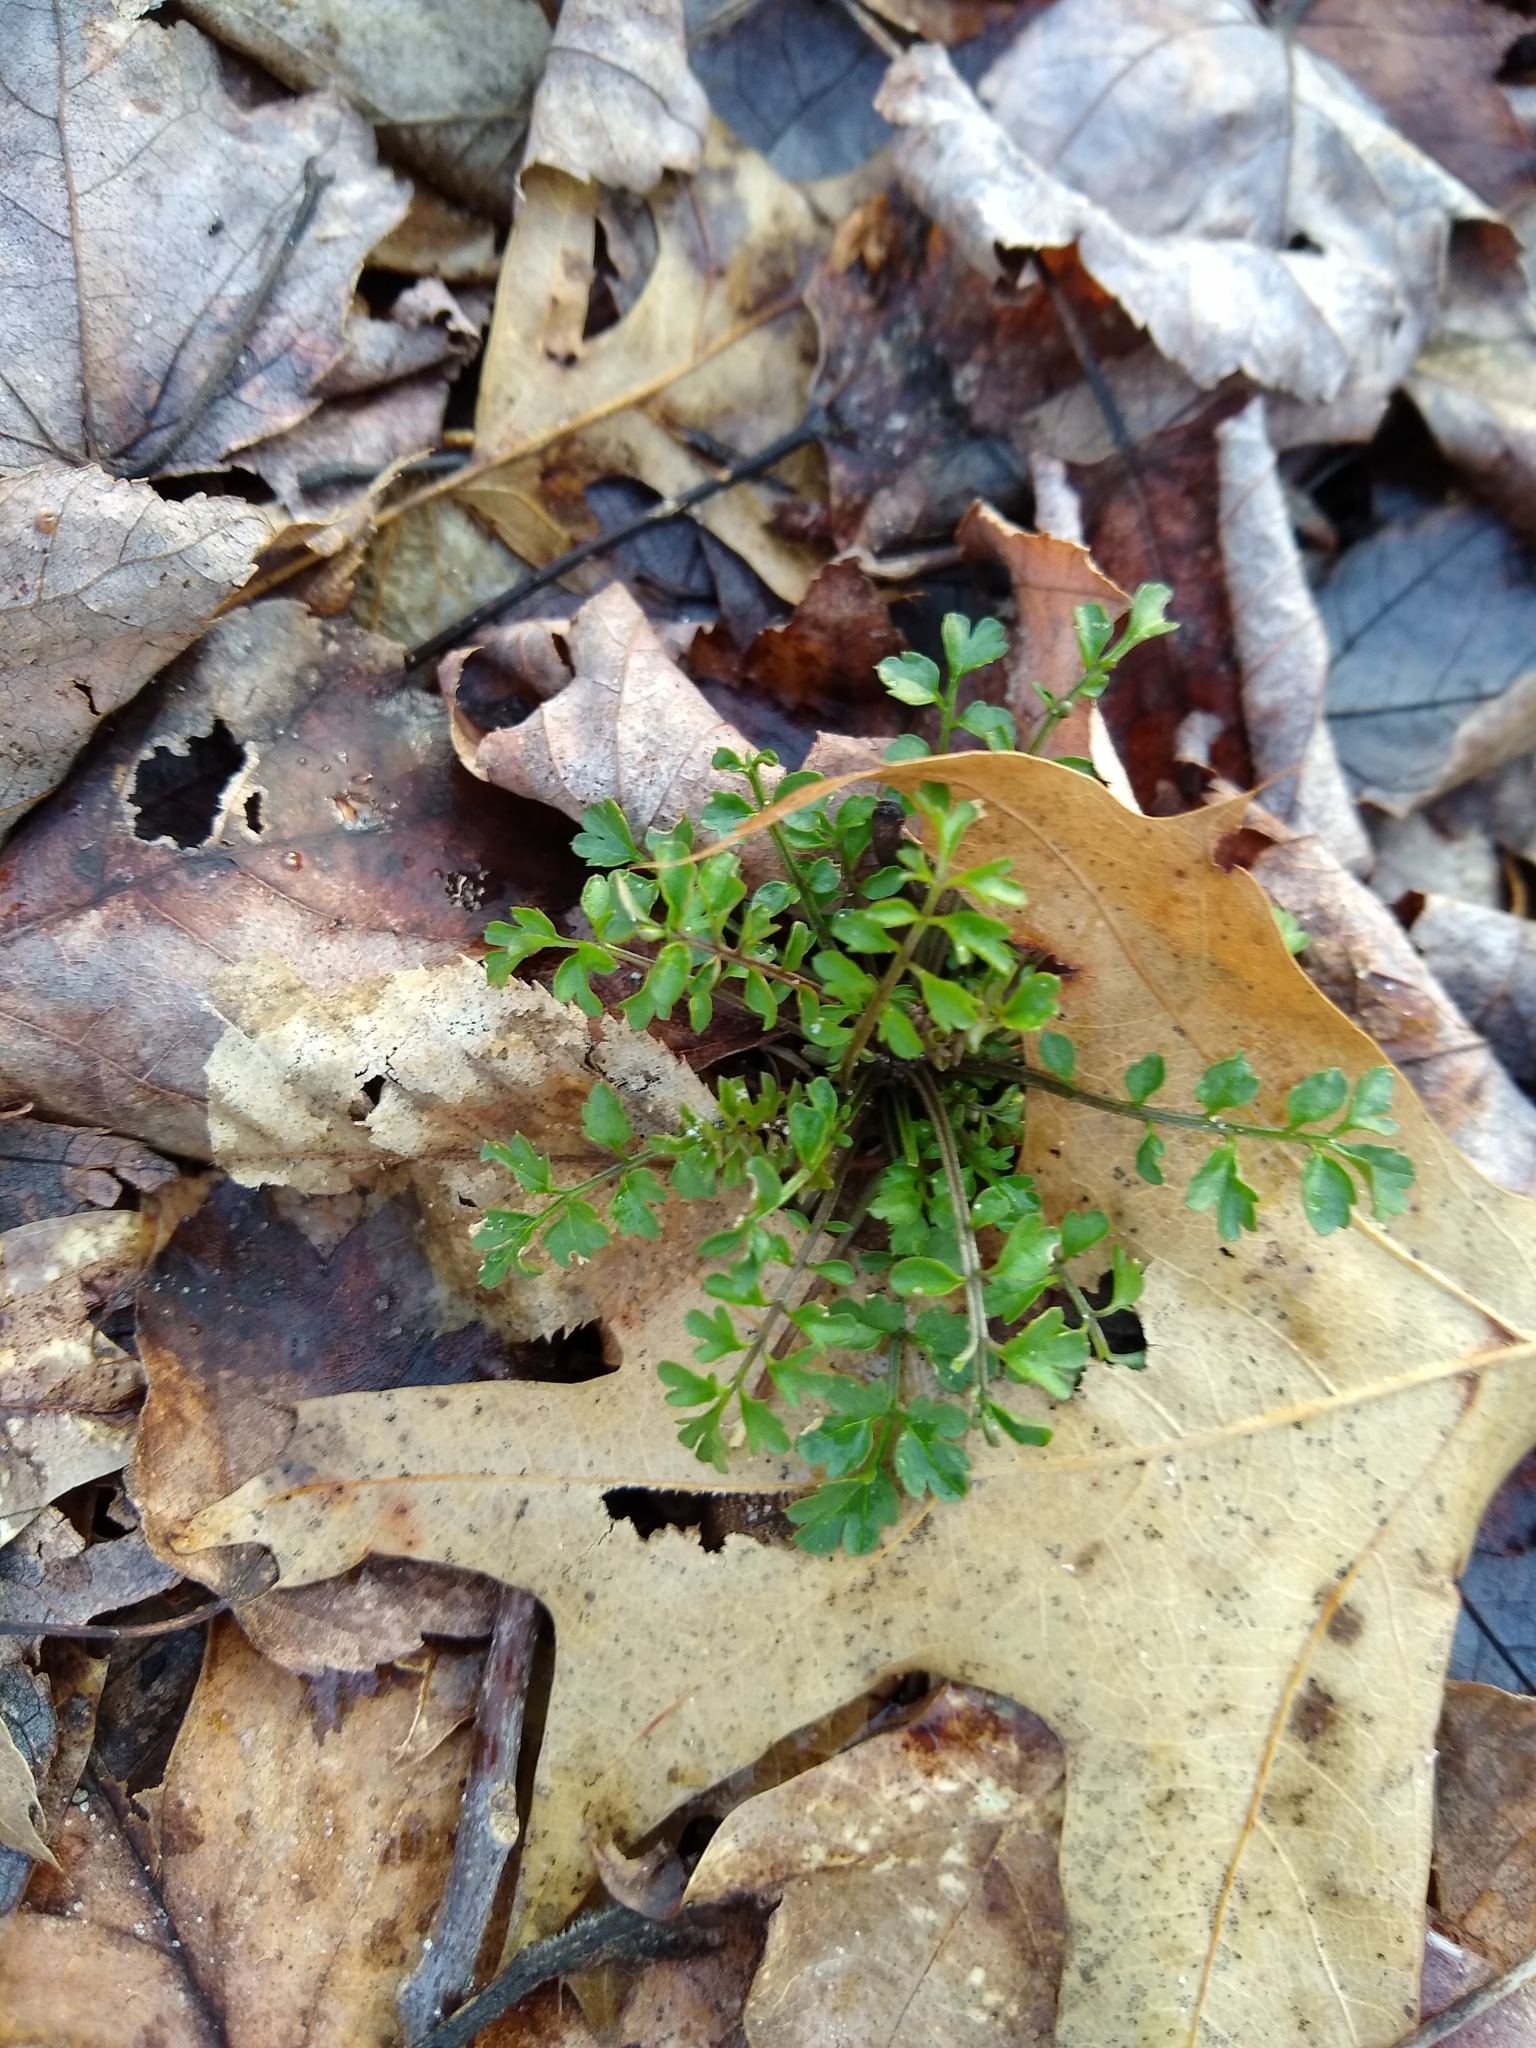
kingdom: Plantae
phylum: Tracheophyta
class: Magnoliopsida
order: Brassicales
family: Brassicaceae
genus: Cardamine
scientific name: Cardamine impatiens
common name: Narrow-leaved bitter-cress
